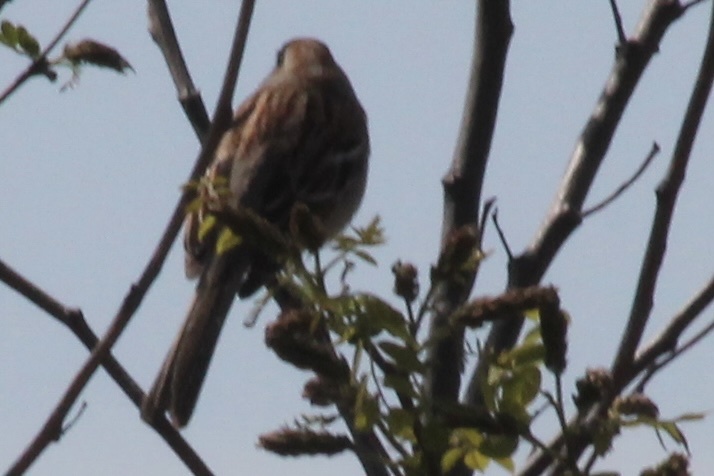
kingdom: Animalia
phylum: Chordata
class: Aves
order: Passeriformes
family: Passerellidae
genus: Spizella
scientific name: Spizella pusilla
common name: Field sparrow
